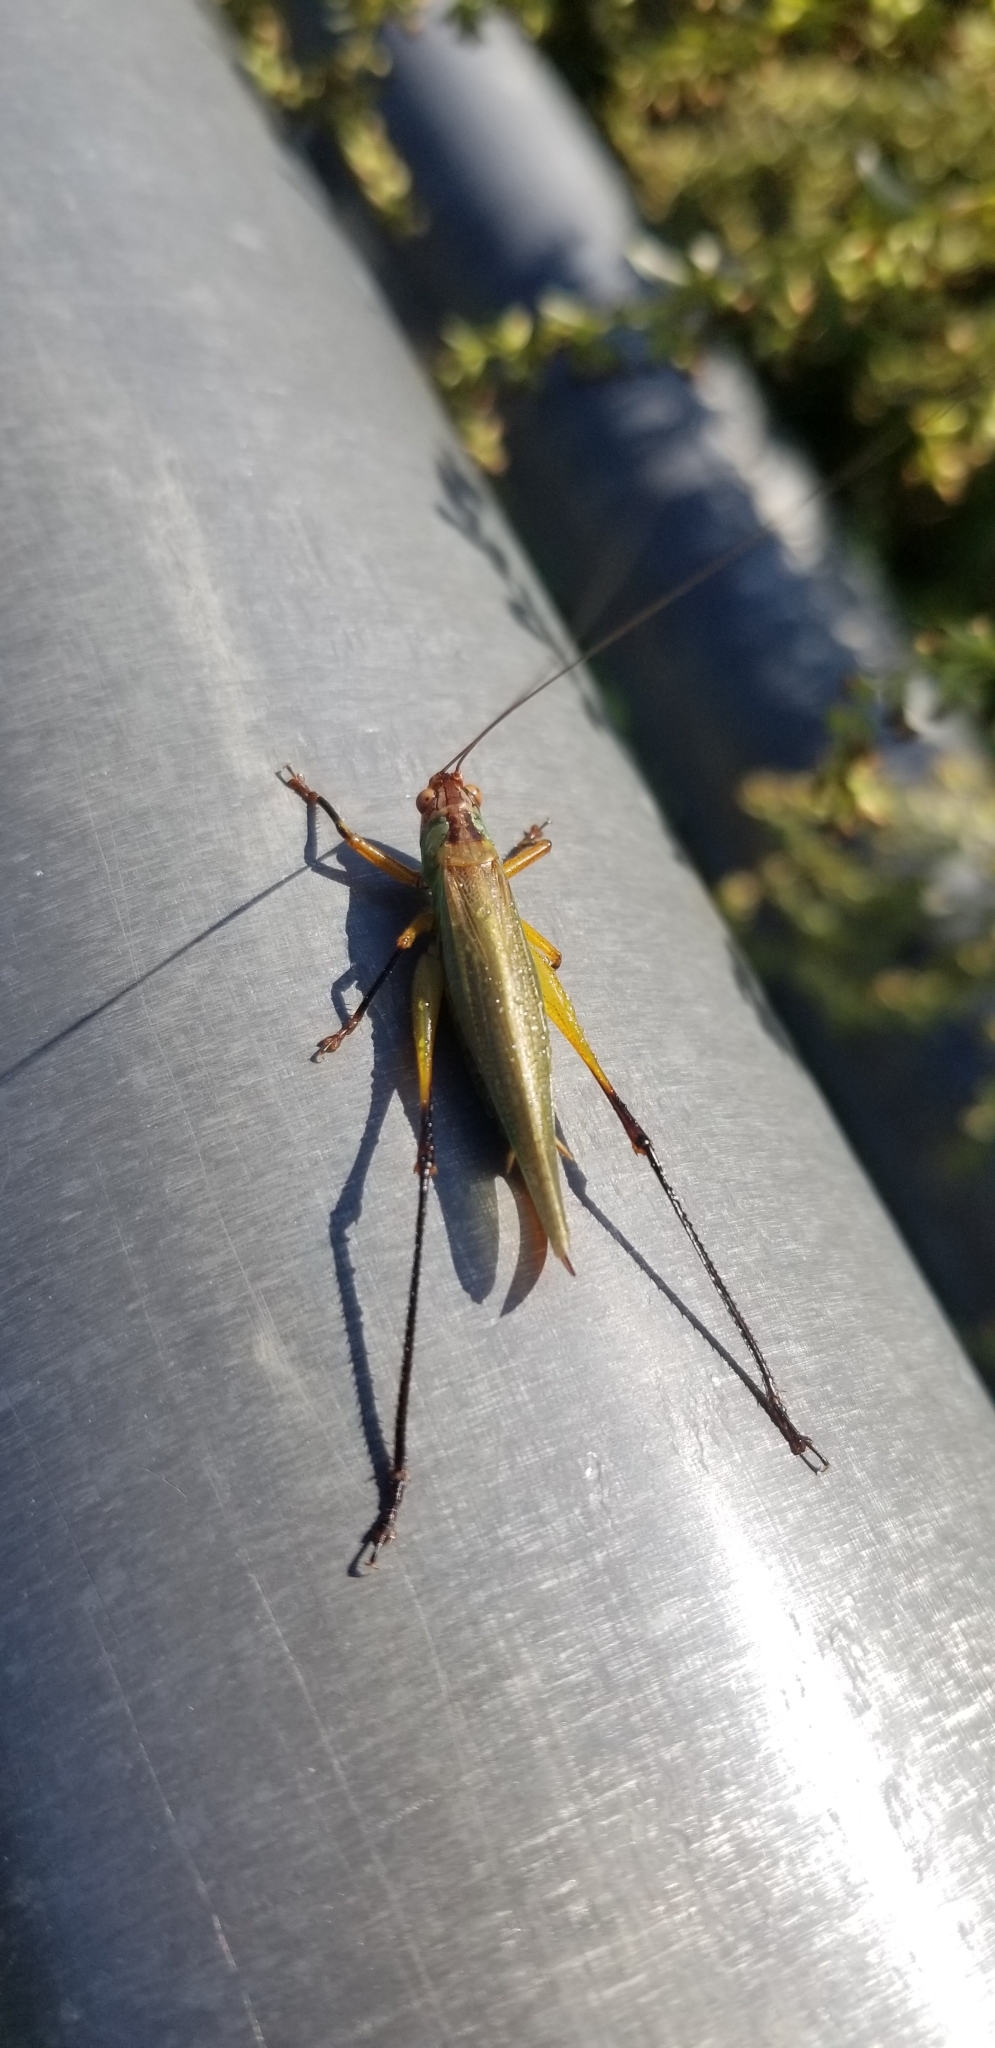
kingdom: Animalia
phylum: Arthropoda
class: Insecta
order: Orthoptera
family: Tettigoniidae
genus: Orchelimum
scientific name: Orchelimum nigripes
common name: Black-legged meadow katydid
